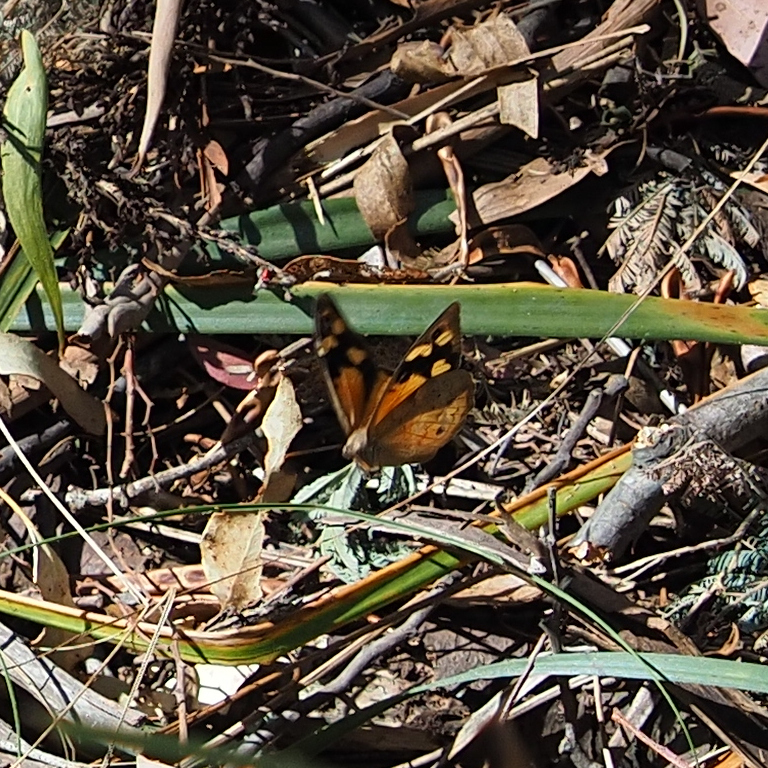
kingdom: Animalia
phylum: Arthropoda
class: Insecta
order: Lepidoptera
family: Nymphalidae
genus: Heteronympha
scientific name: Heteronympha merope
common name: Common brown
